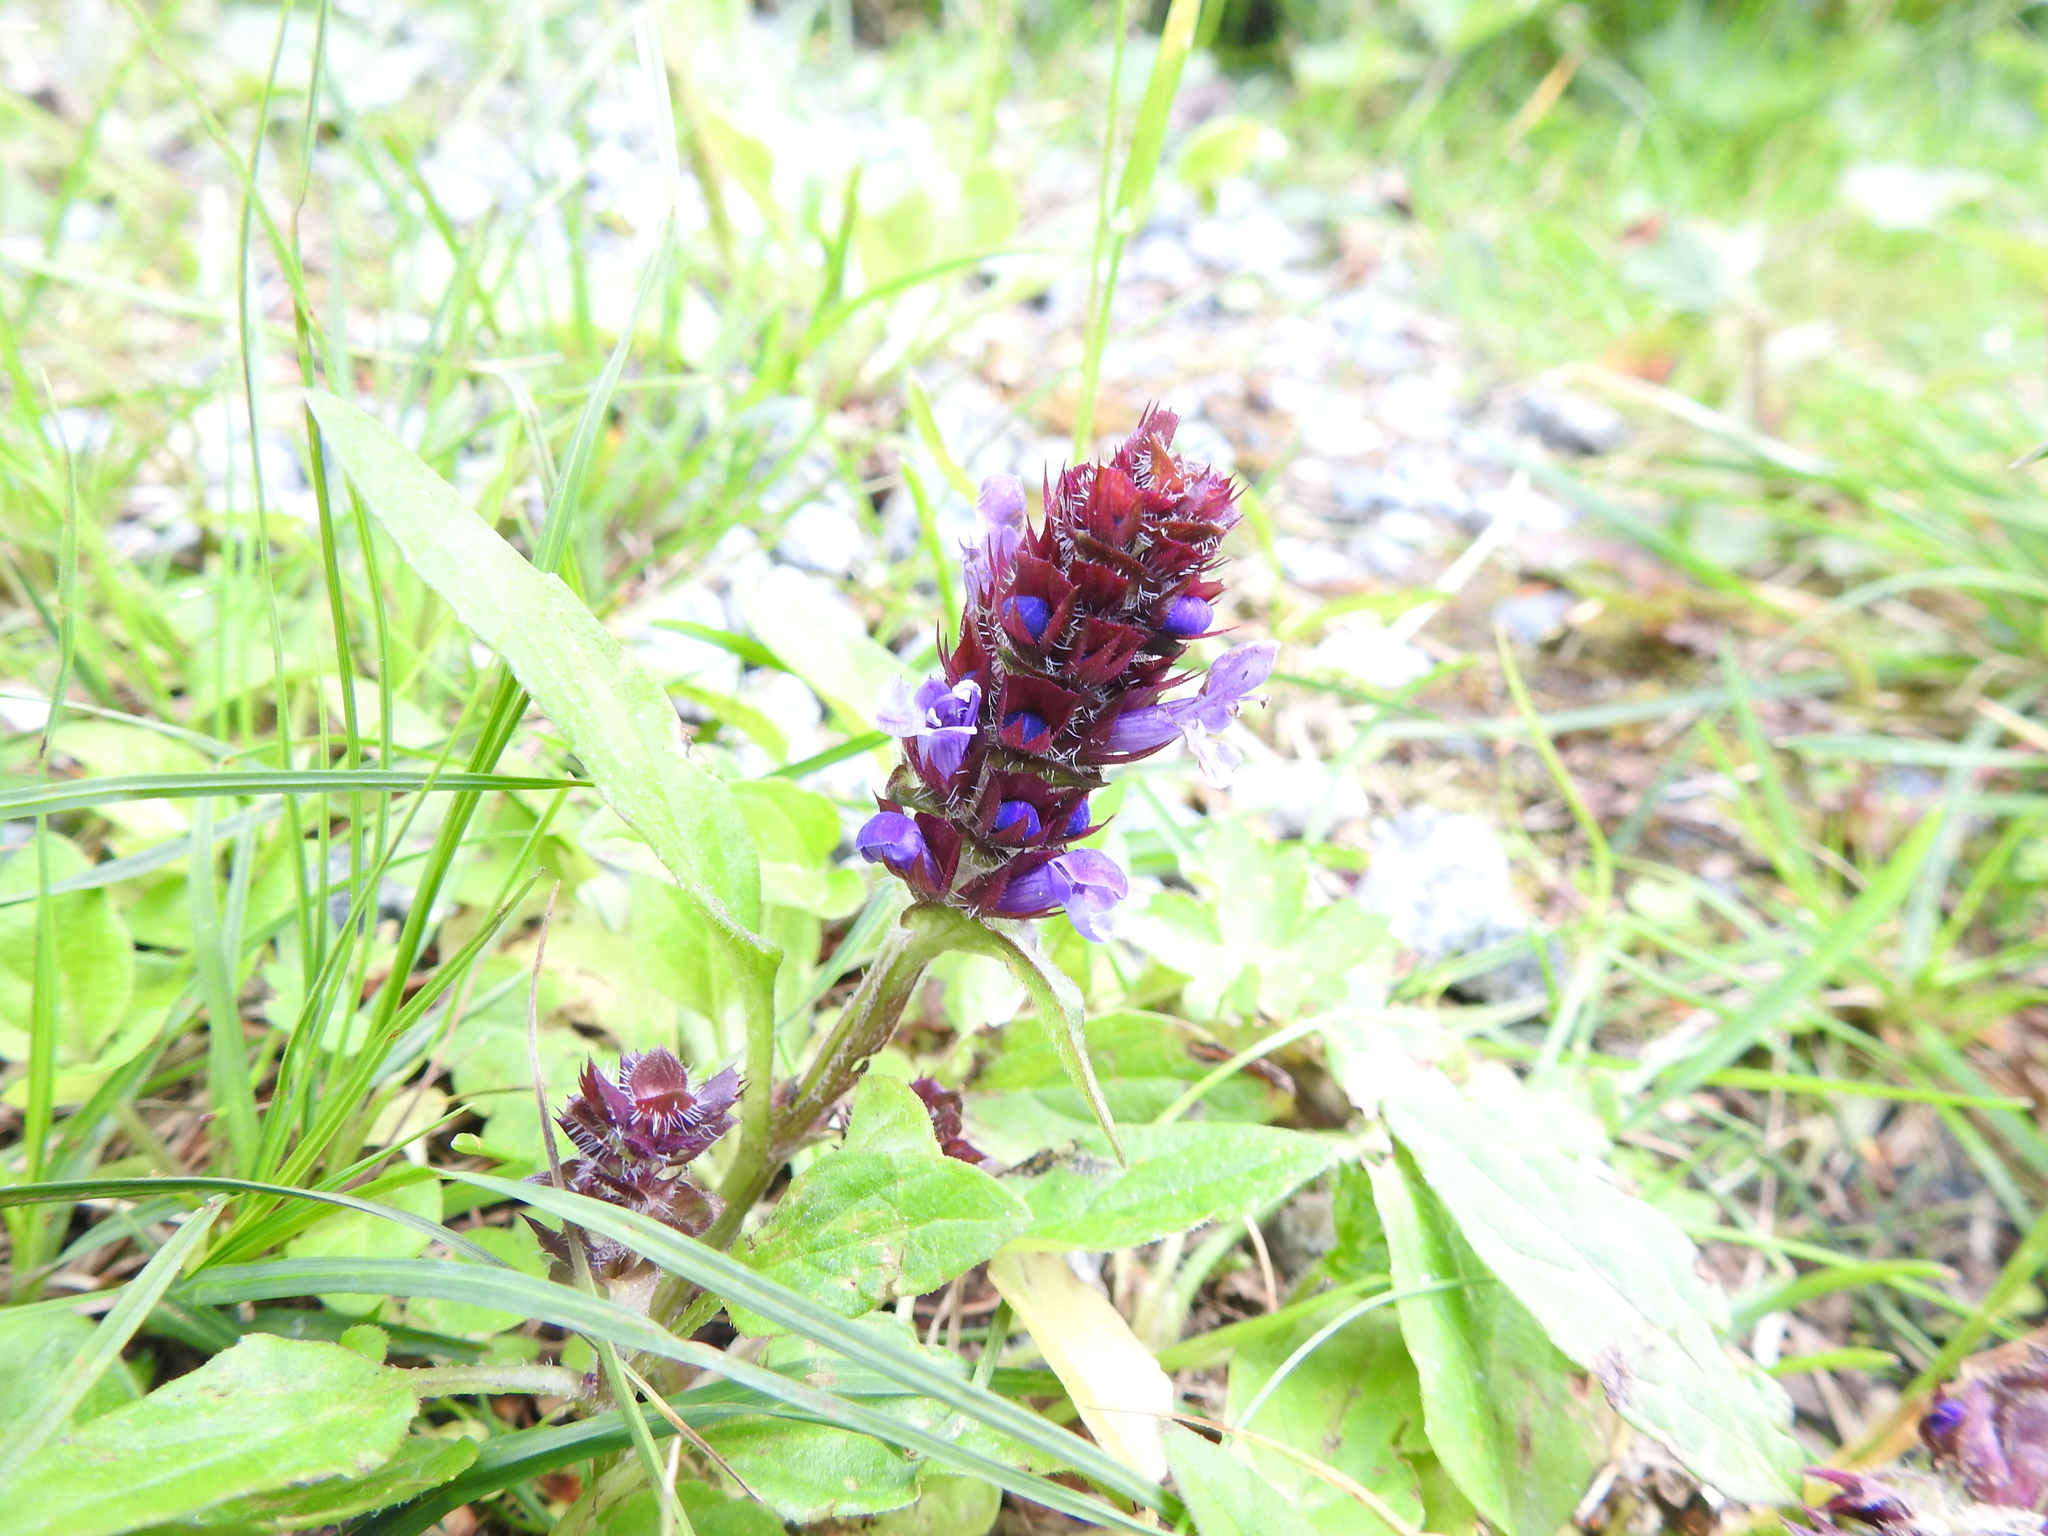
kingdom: Plantae
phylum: Tracheophyta
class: Magnoliopsida
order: Lamiales
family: Lamiaceae
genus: Prunella
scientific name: Prunella vulgaris
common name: Heal-all
